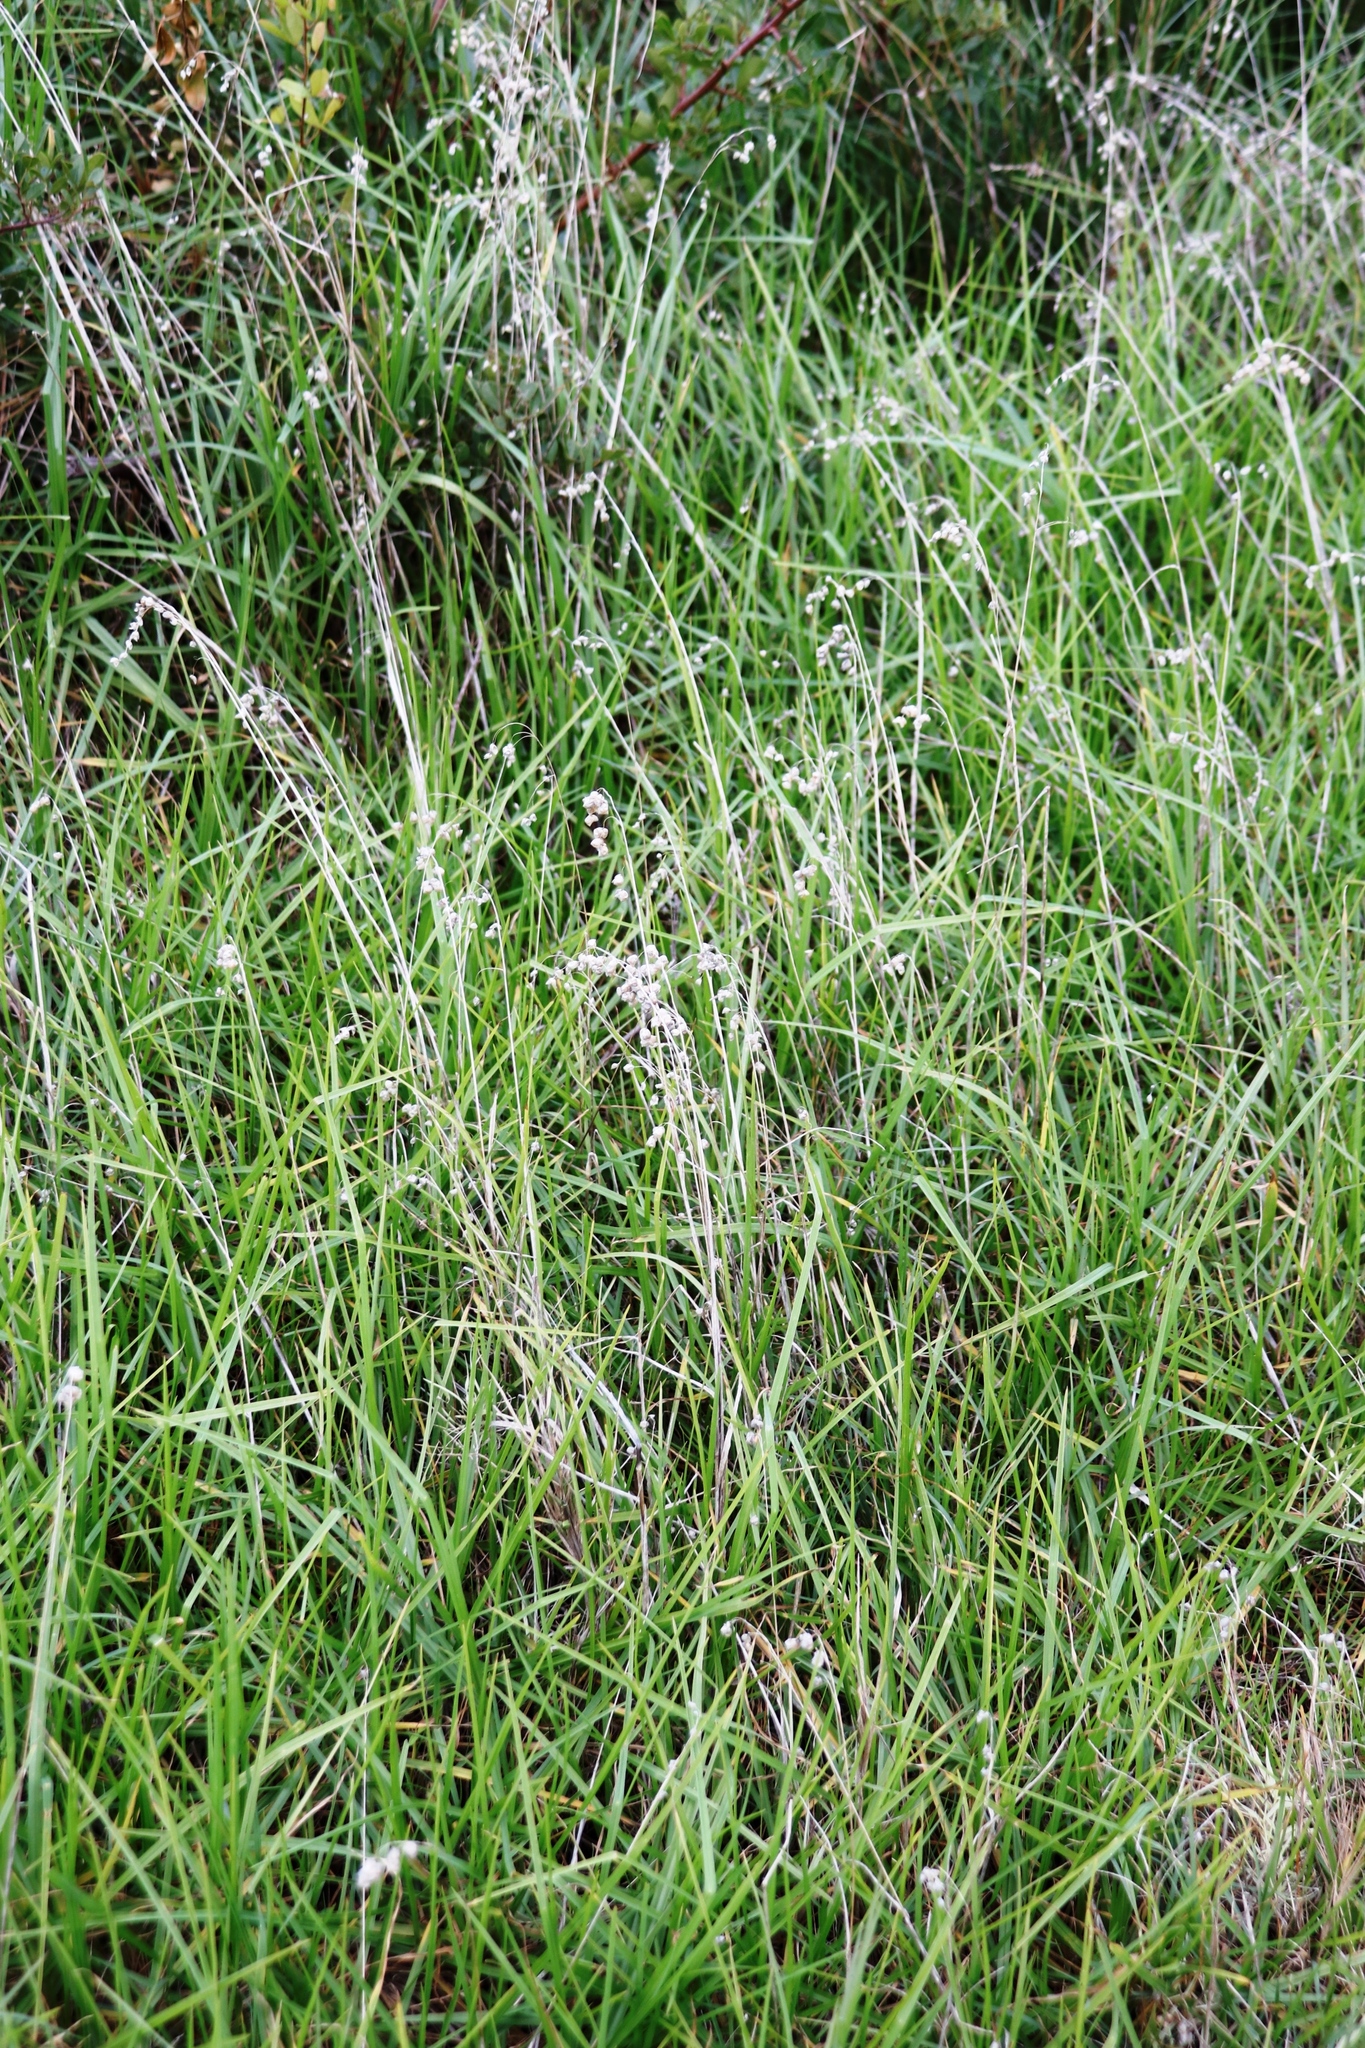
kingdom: Plantae
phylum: Tracheophyta
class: Liliopsida
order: Poales
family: Poaceae
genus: Briza
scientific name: Briza maxima
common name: Big quakinggrass
